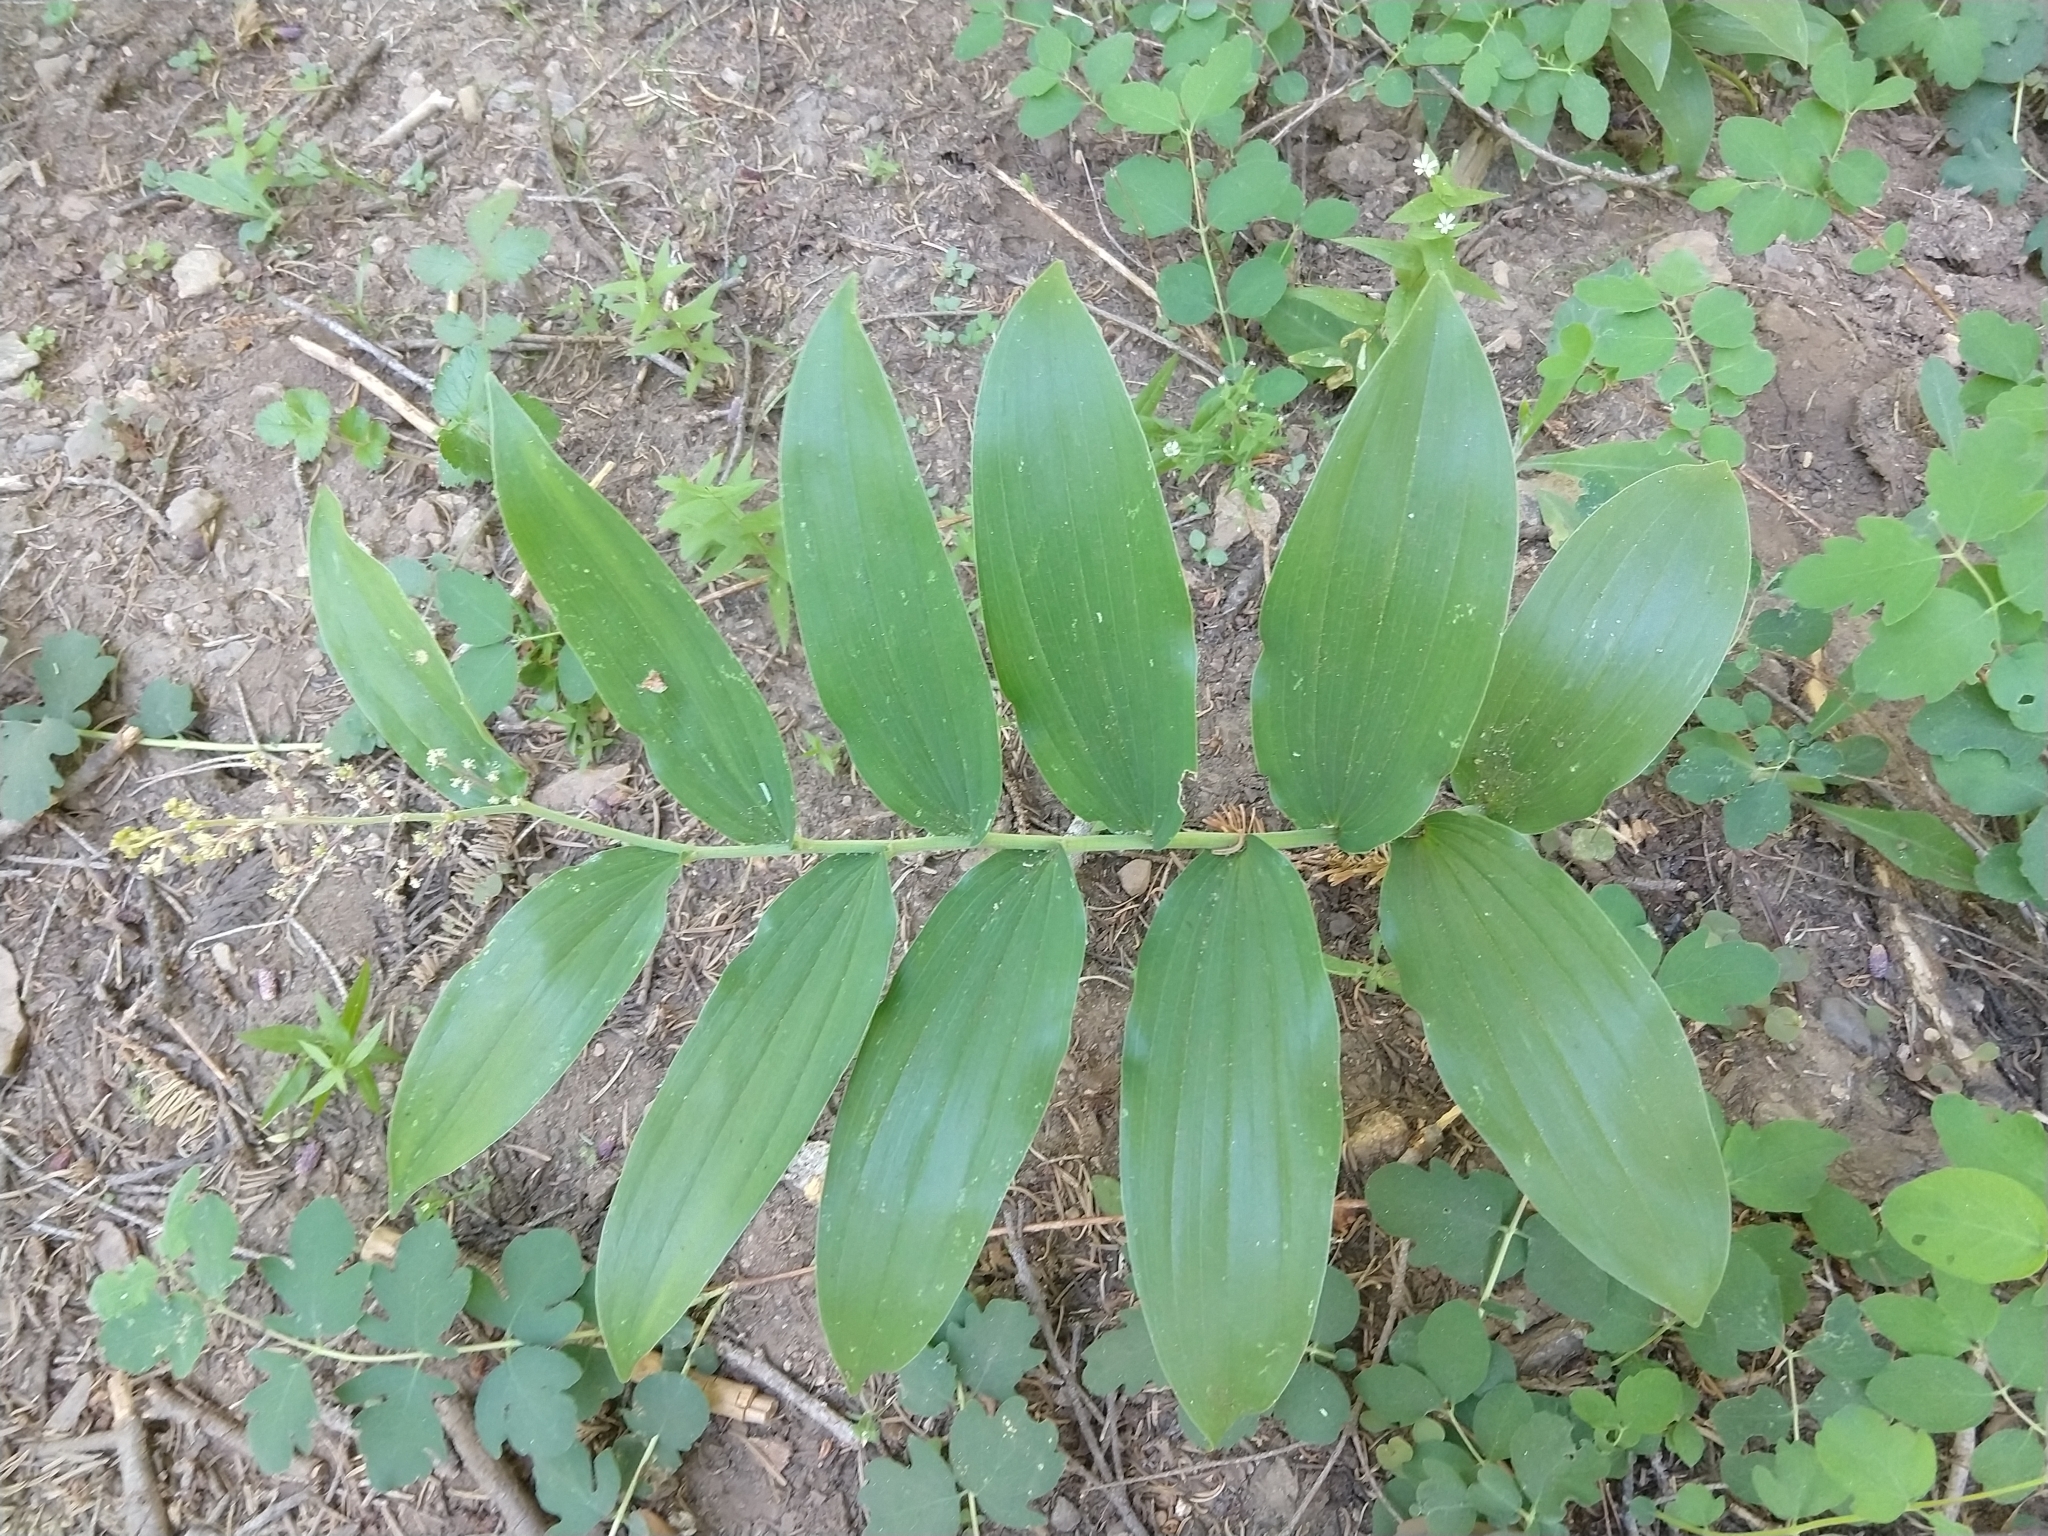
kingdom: Plantae
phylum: Tracheophyta
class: Liliopsida
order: Asparagales
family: Asparagaceae
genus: Maianthemum
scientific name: Maianthemum racemosum
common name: False spikenard
